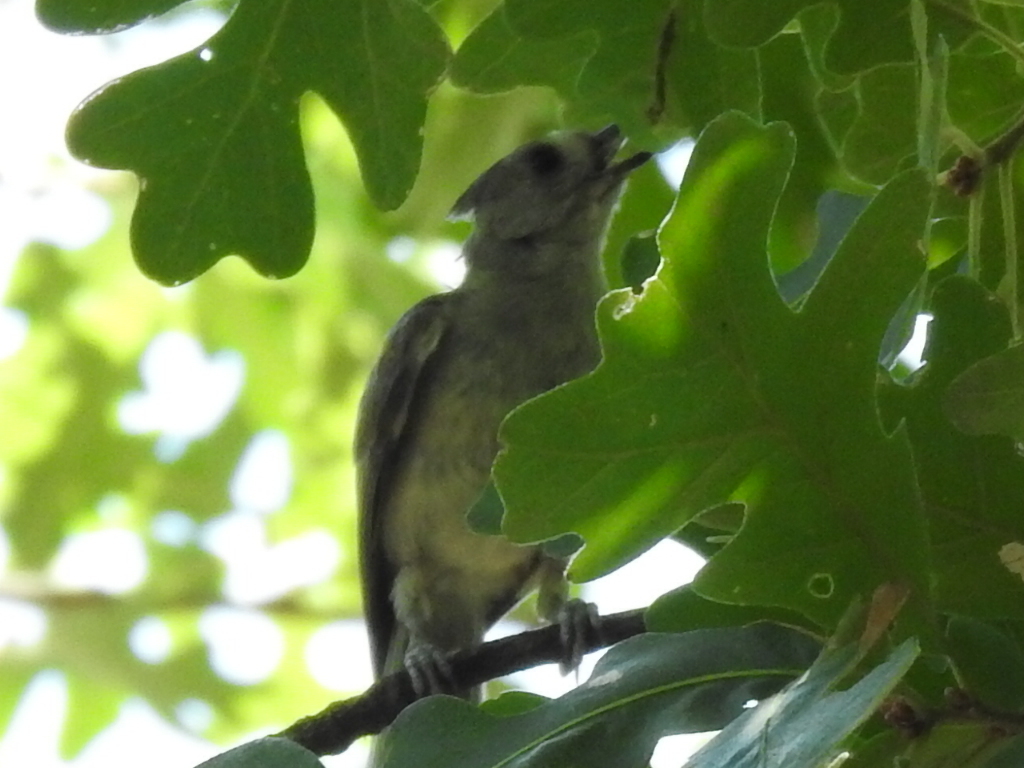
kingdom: Animalia
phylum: Chordata
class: Aves
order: Passeriformes
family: Paridae
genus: Baeolophus
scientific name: Baeolophus bicolor
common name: Tufted titmouse
